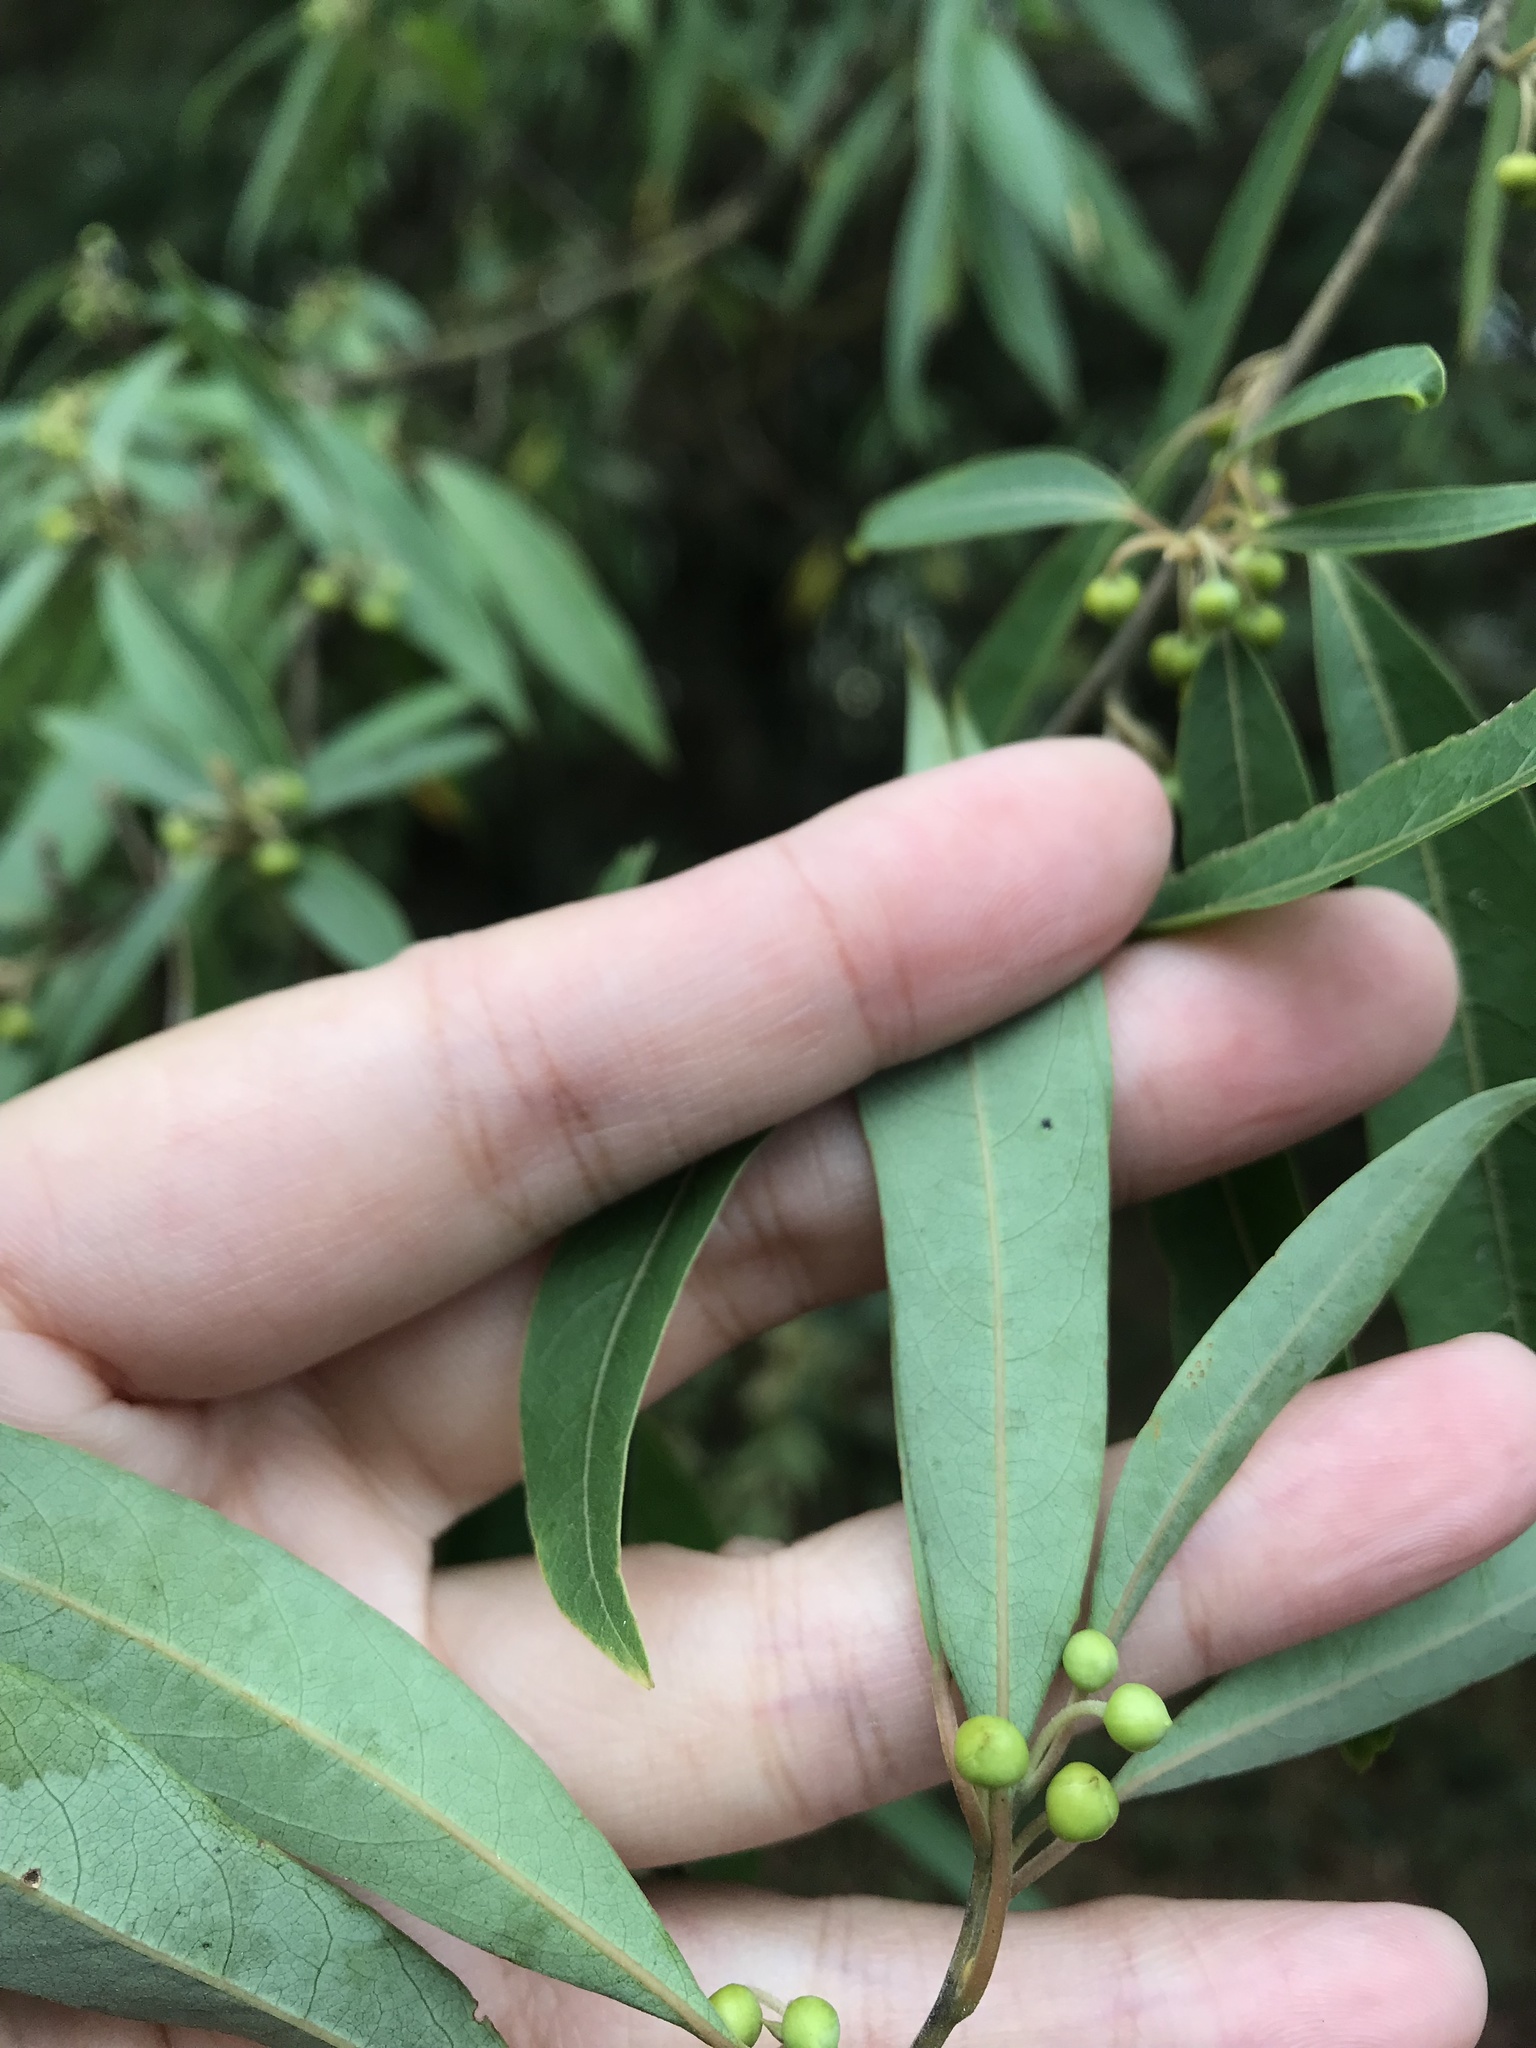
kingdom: Plantae
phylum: Tracheophyta
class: Magnoliopsida
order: Laurales
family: Lauraceae
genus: Litsea
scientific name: Litsea cubeba
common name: Mountain-pepper
